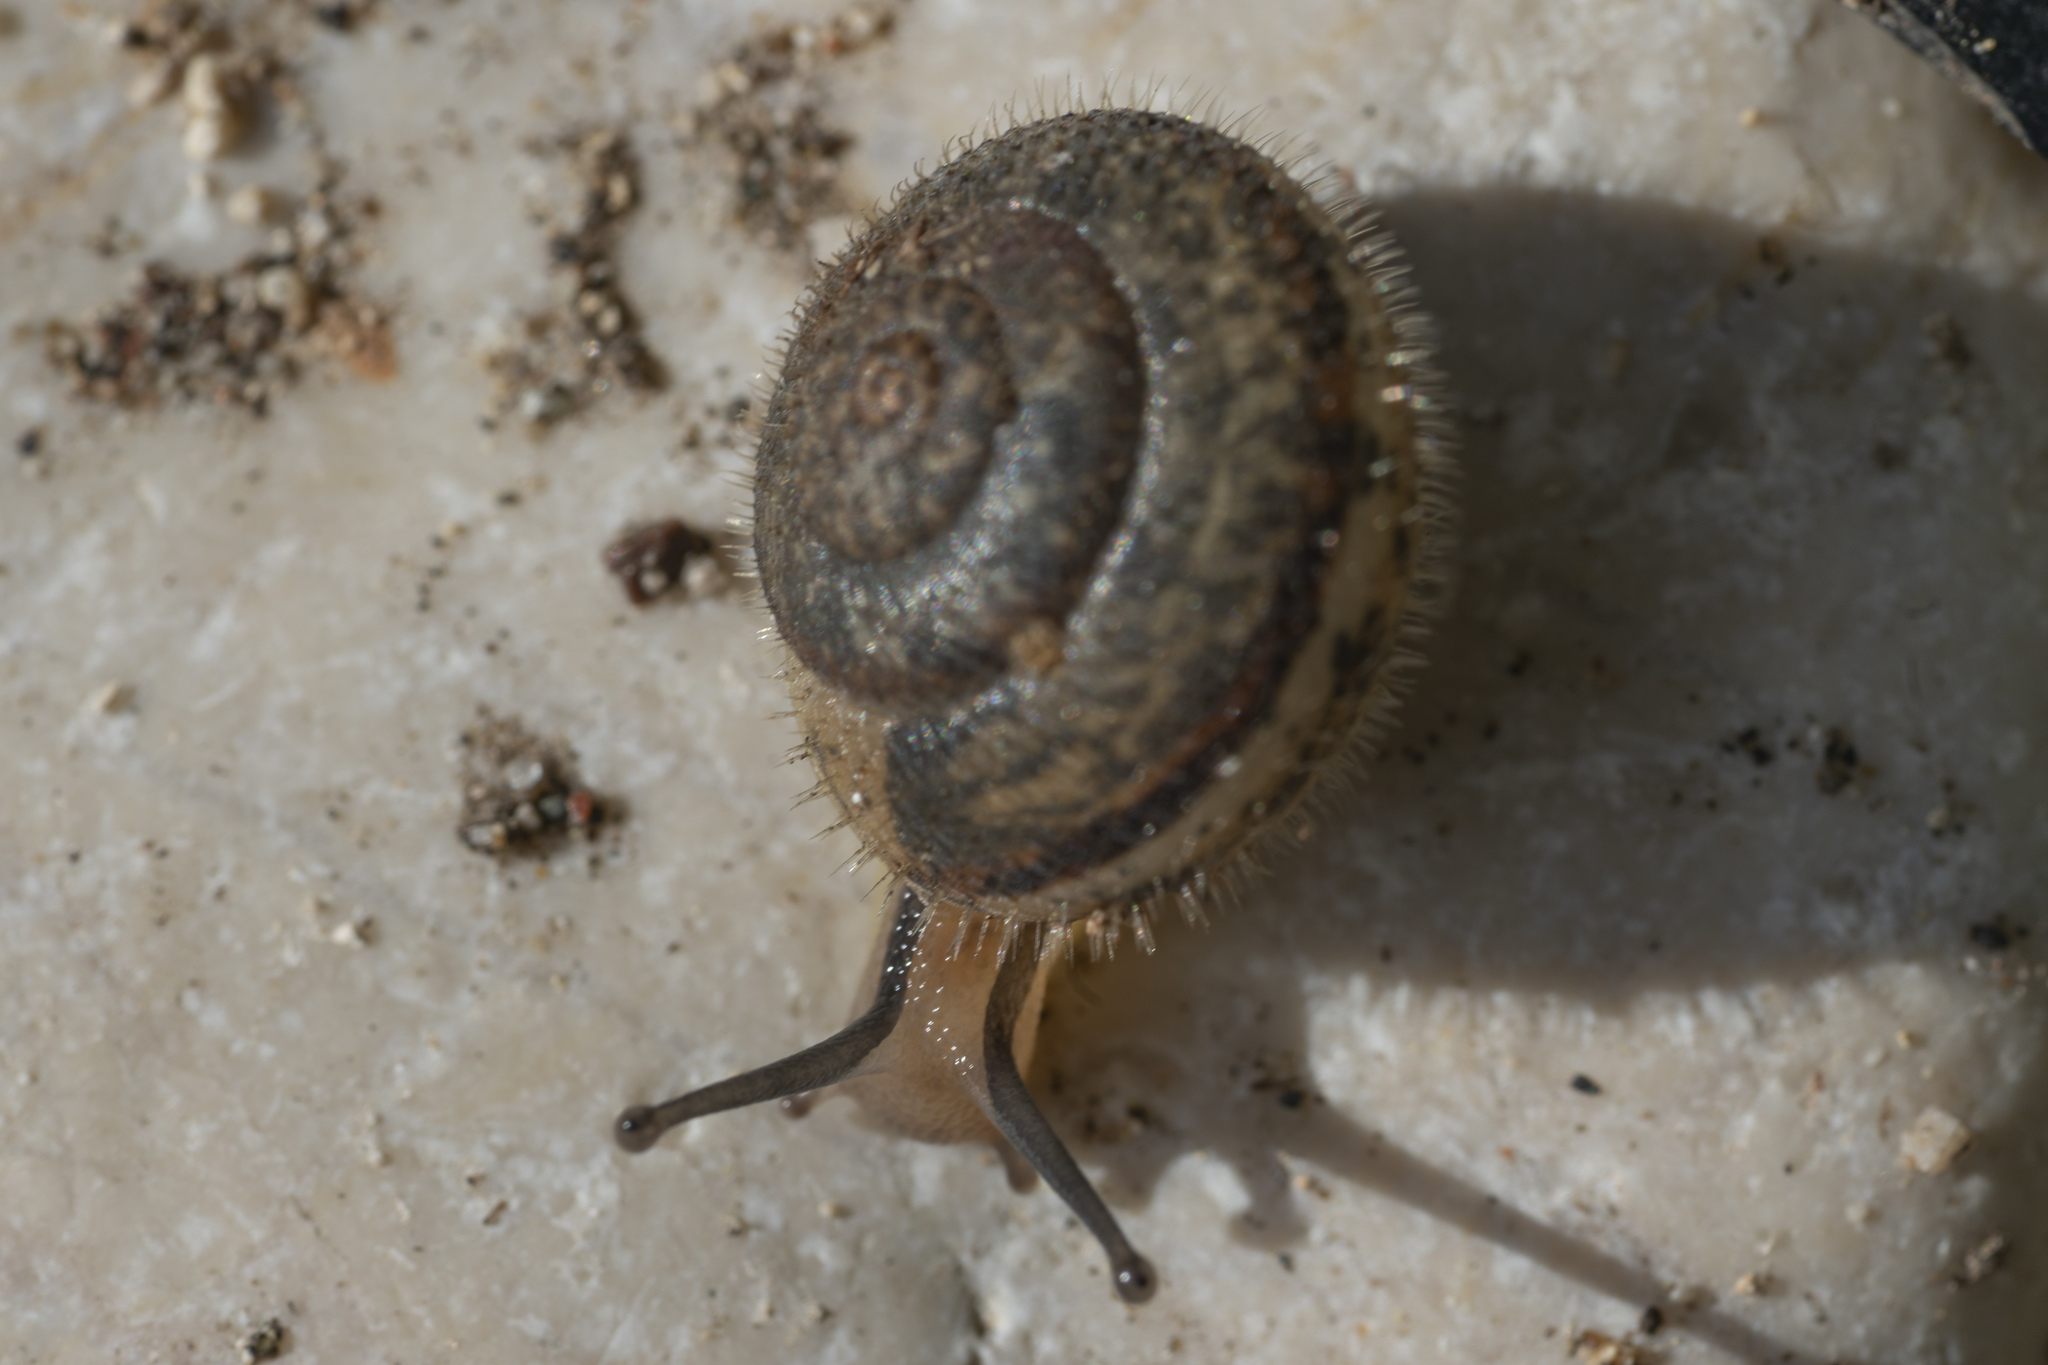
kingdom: Animalia
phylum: Mollusca
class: Gastropoda
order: Stylommatophora
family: Hygromiidae
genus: Metafruticicola
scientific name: Metafruticicola pellita
